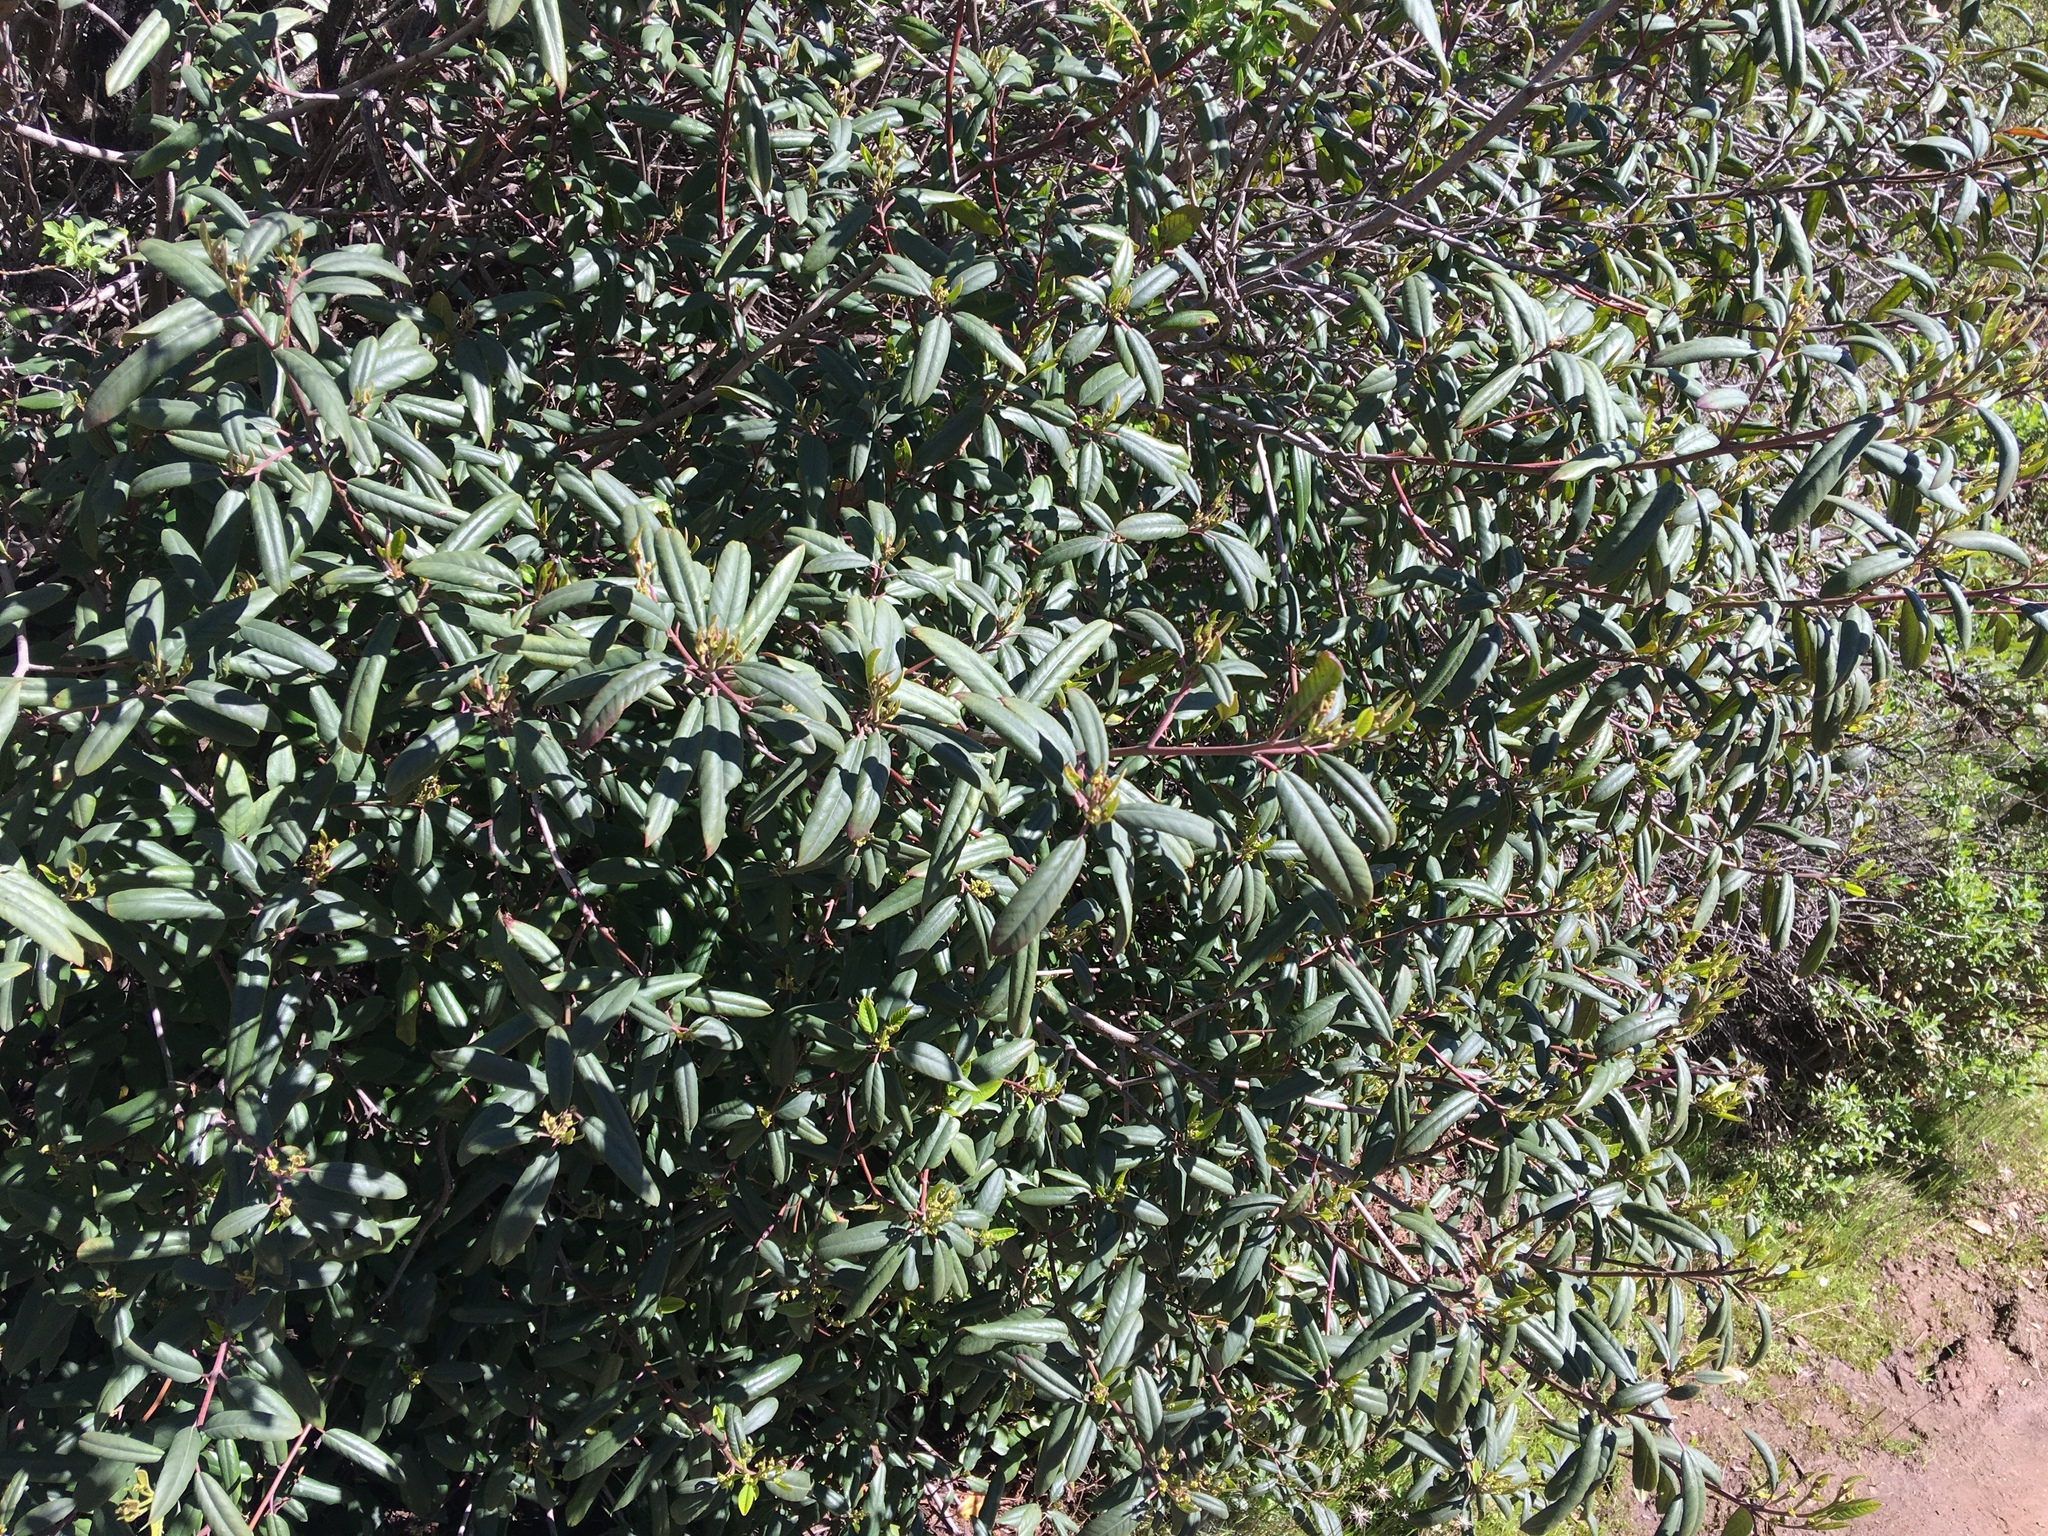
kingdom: Plantae
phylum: Tracheophyta
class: Magnoliopsida
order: Rosales
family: Rhamnaceae
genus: Frangula
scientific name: Frangula californica
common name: California buckthorn
